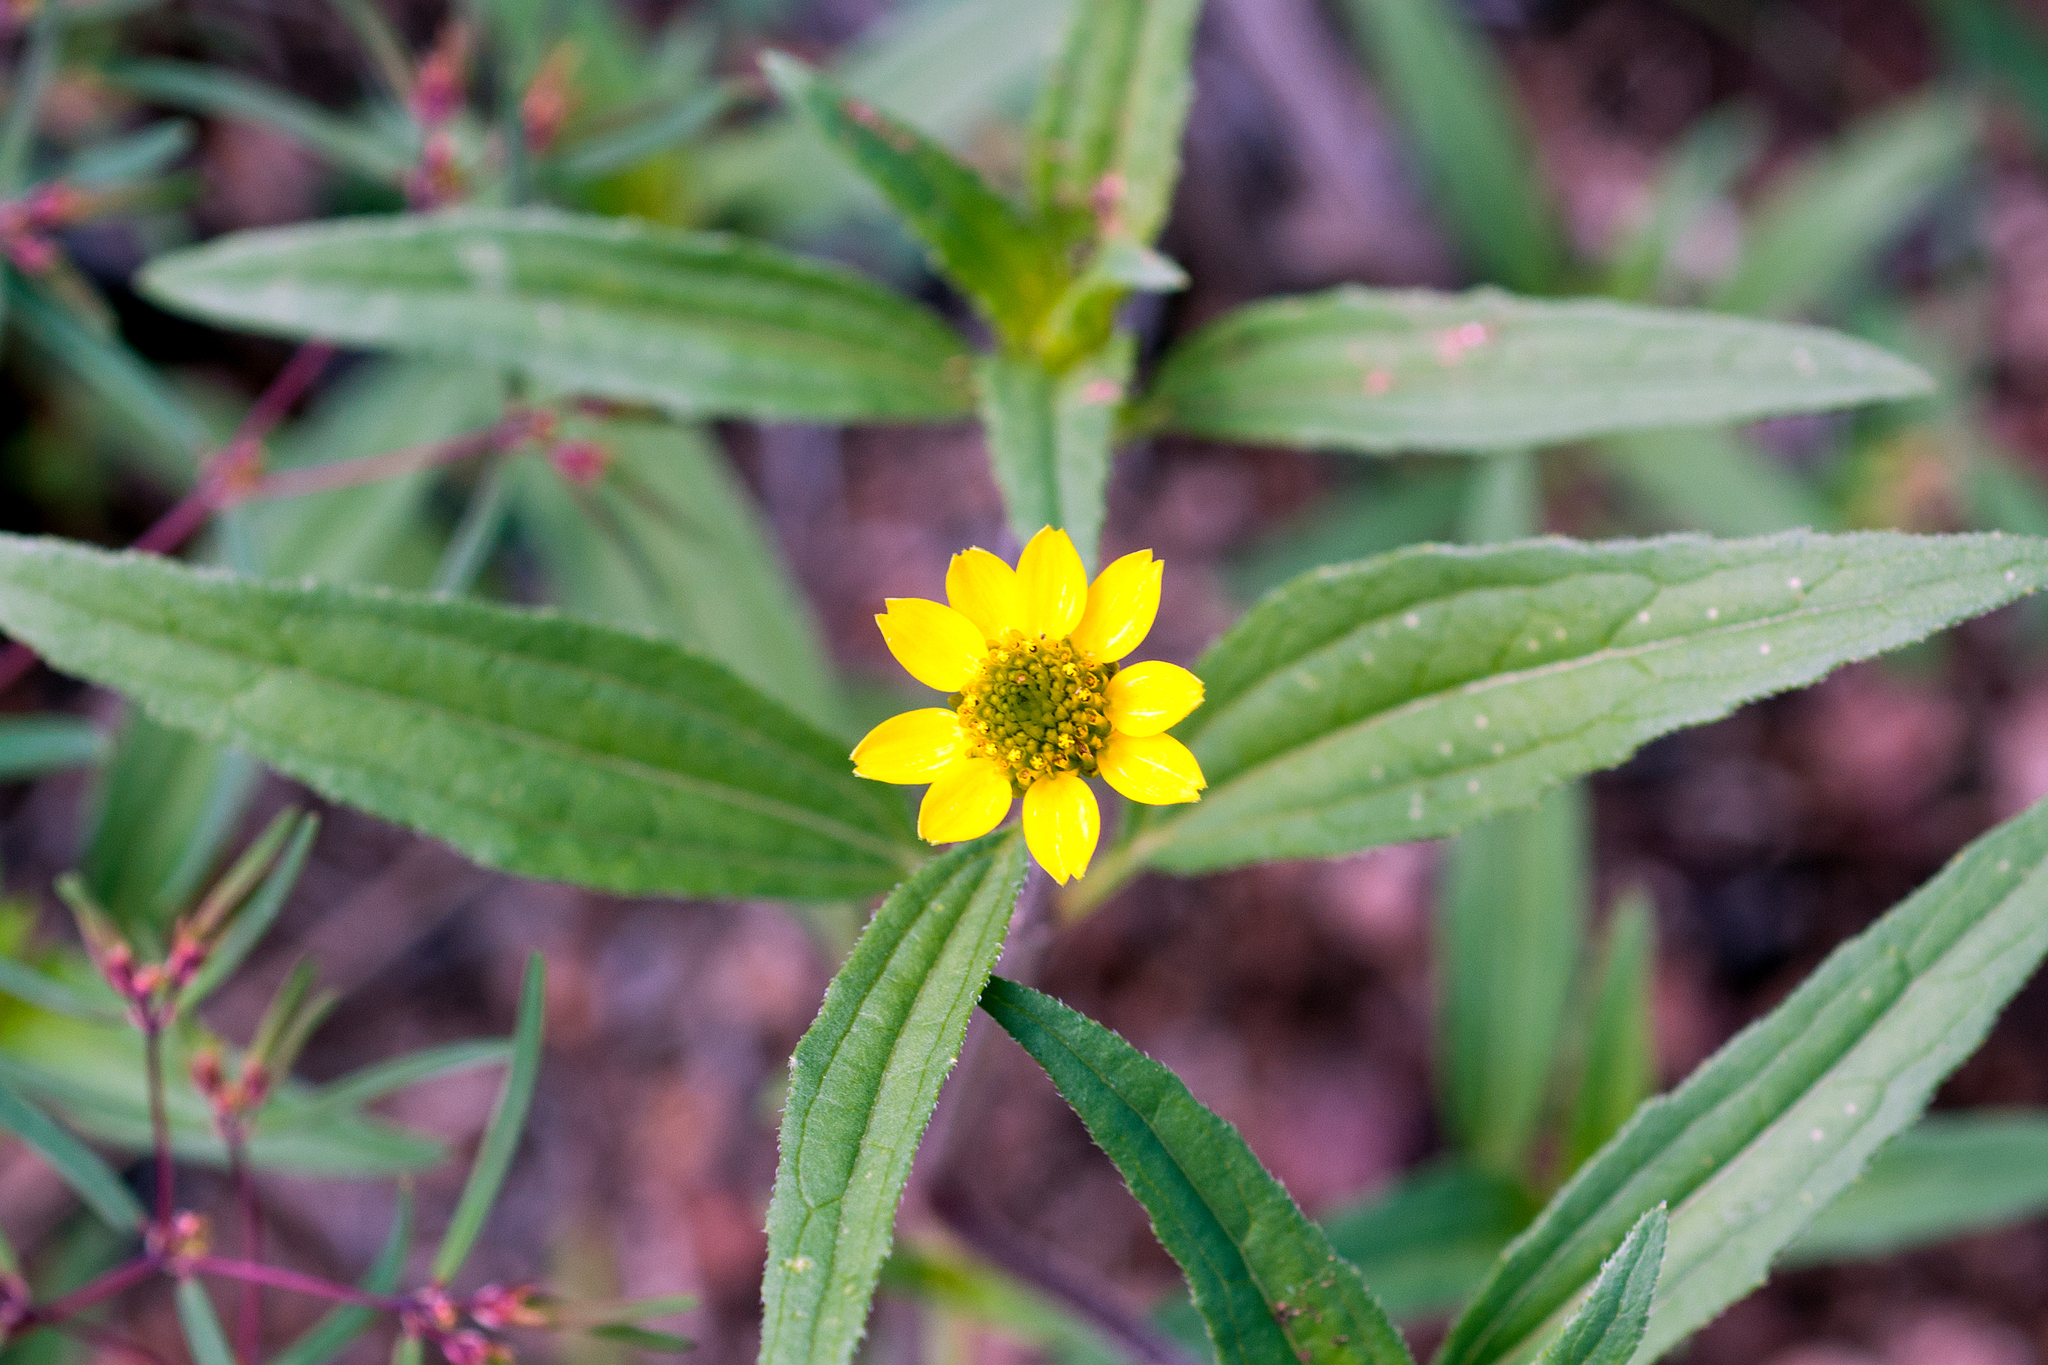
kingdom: Plantae
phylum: Tracheophyta
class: Magnoliopsida
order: Asterales
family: Asteraceae
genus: Sanvitalia
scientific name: Sanvitalia abertii
